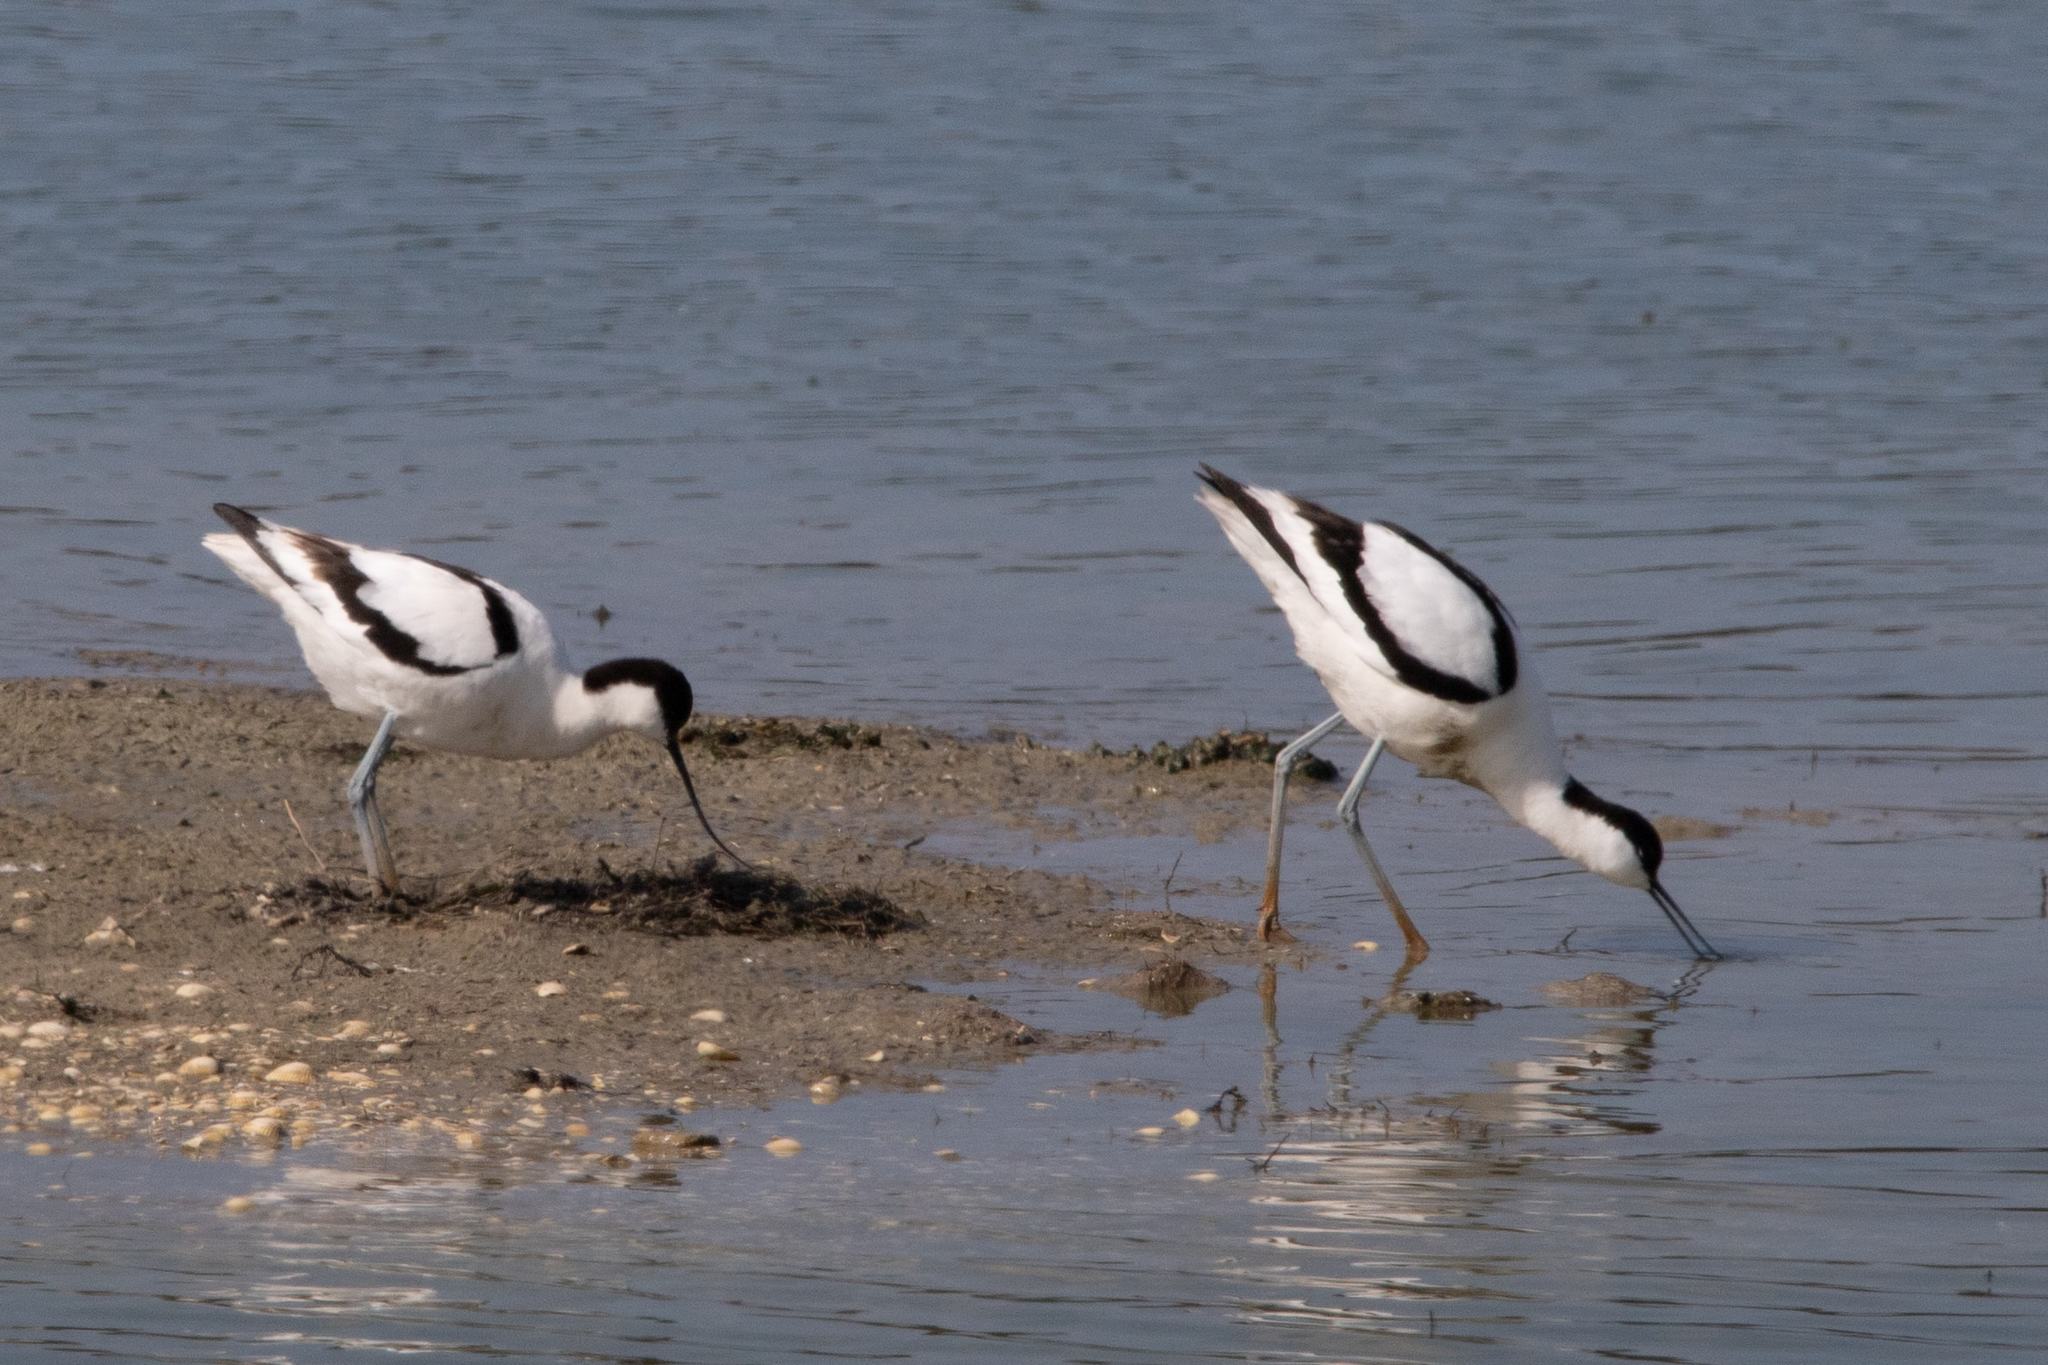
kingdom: Animalia
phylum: Chordata
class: Aves
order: Charadriiformes
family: Recurvirostridae
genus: Recurvirostra
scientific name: Recurvirostra avosetta
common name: Pied avocet
